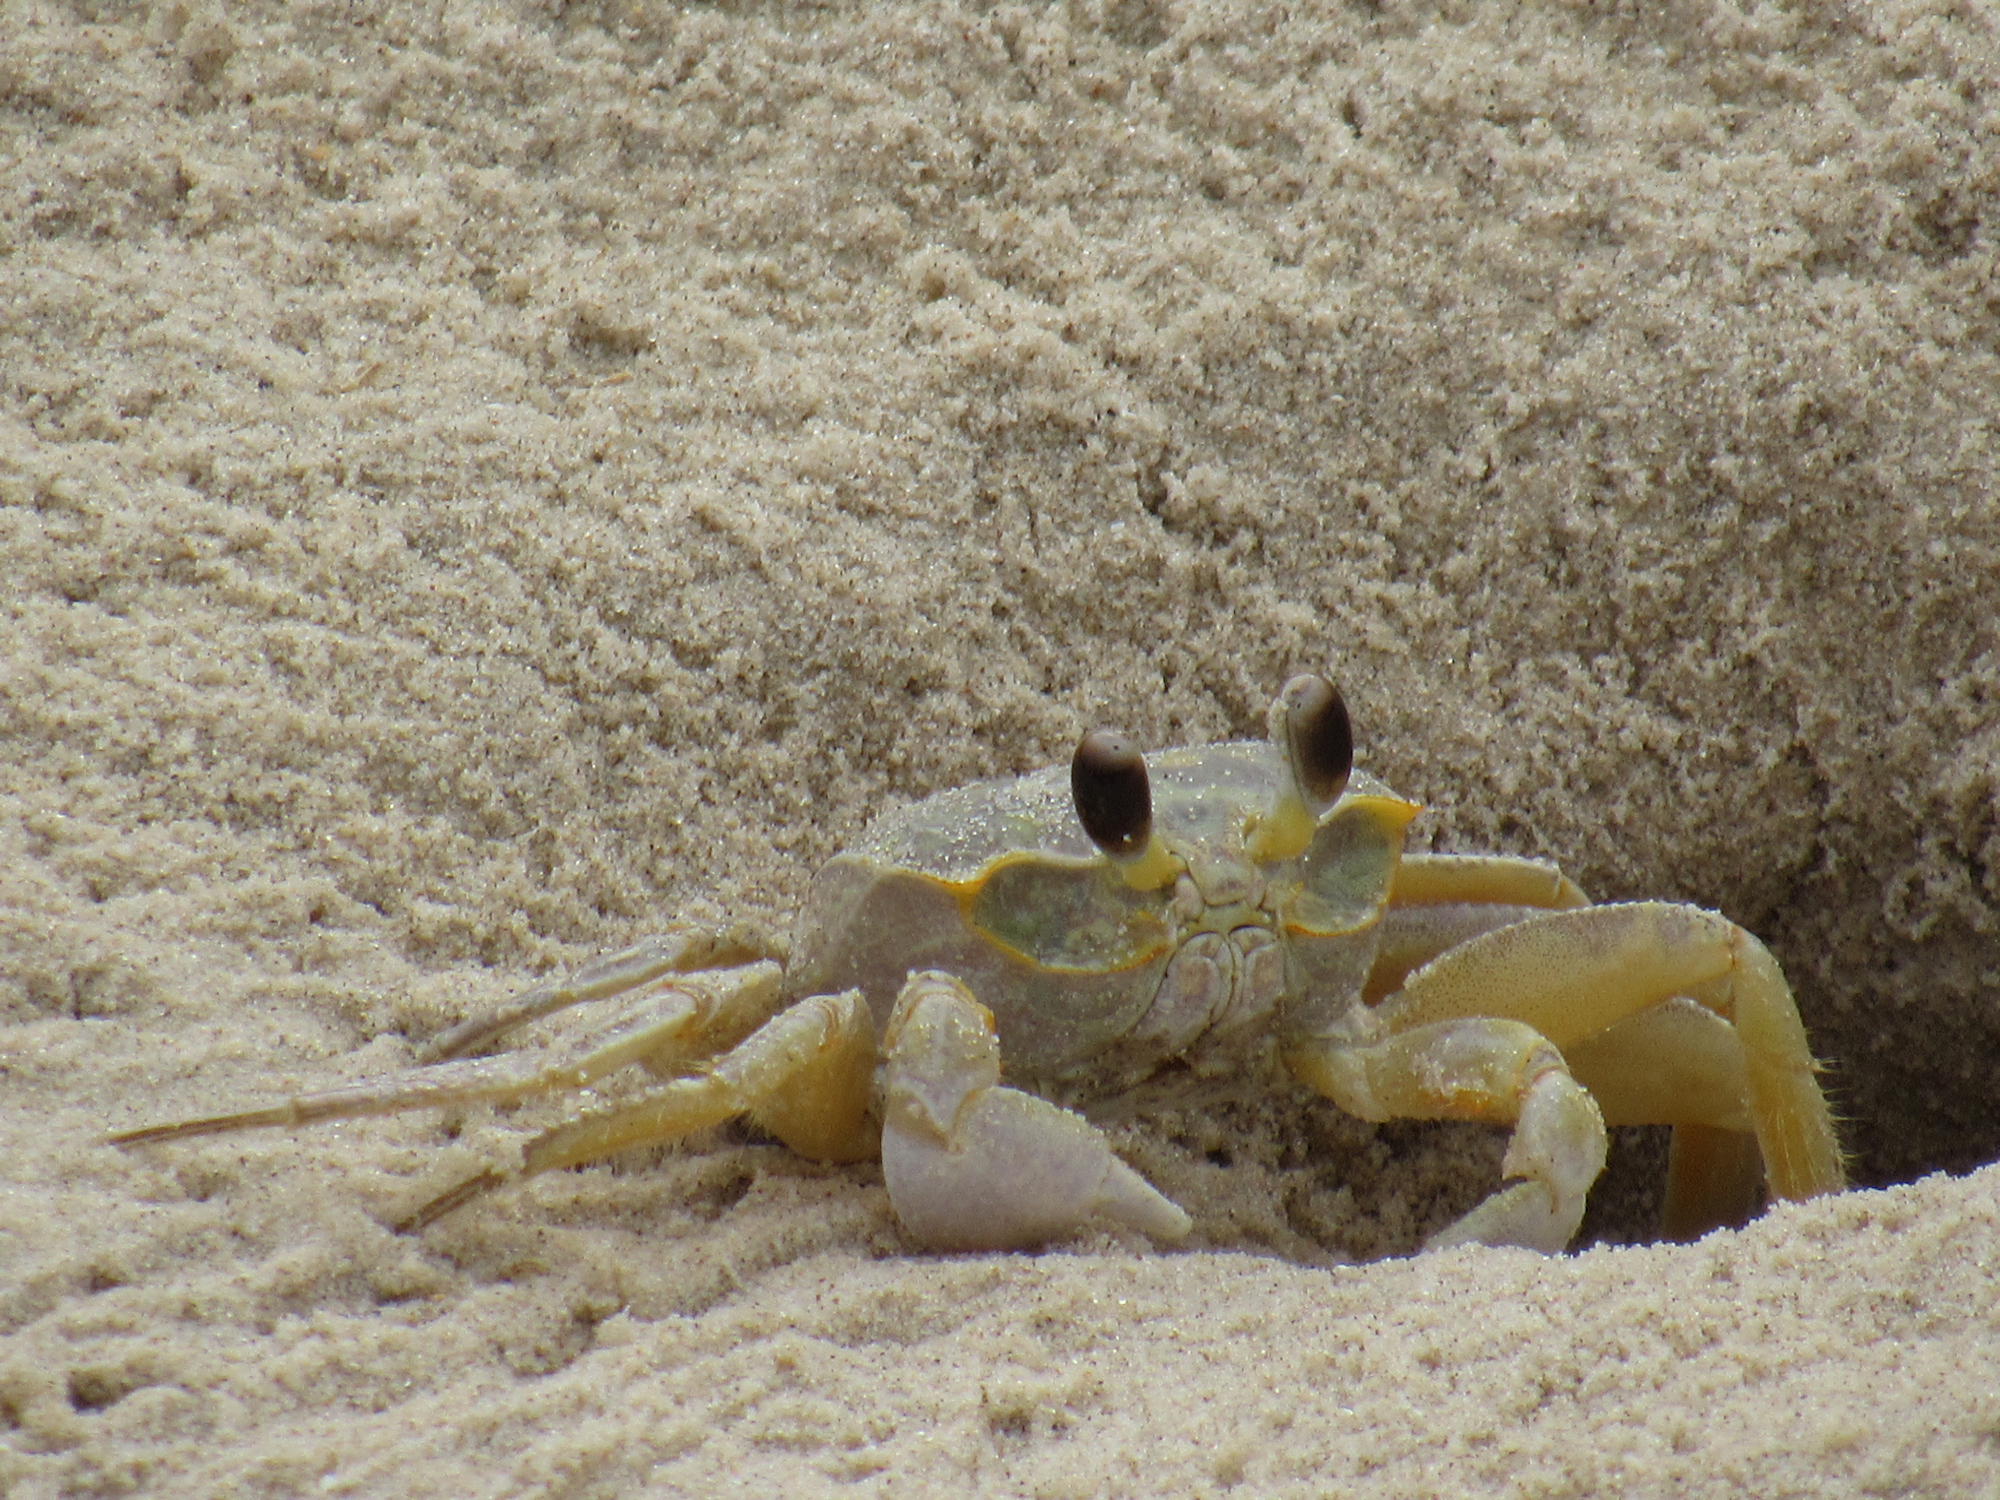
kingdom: Animalia
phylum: Arthropoda
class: Malacostraca
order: Decapoda
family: Ocypodidae
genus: Ocypode
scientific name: Ocypode quadrata
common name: Ghost crab
